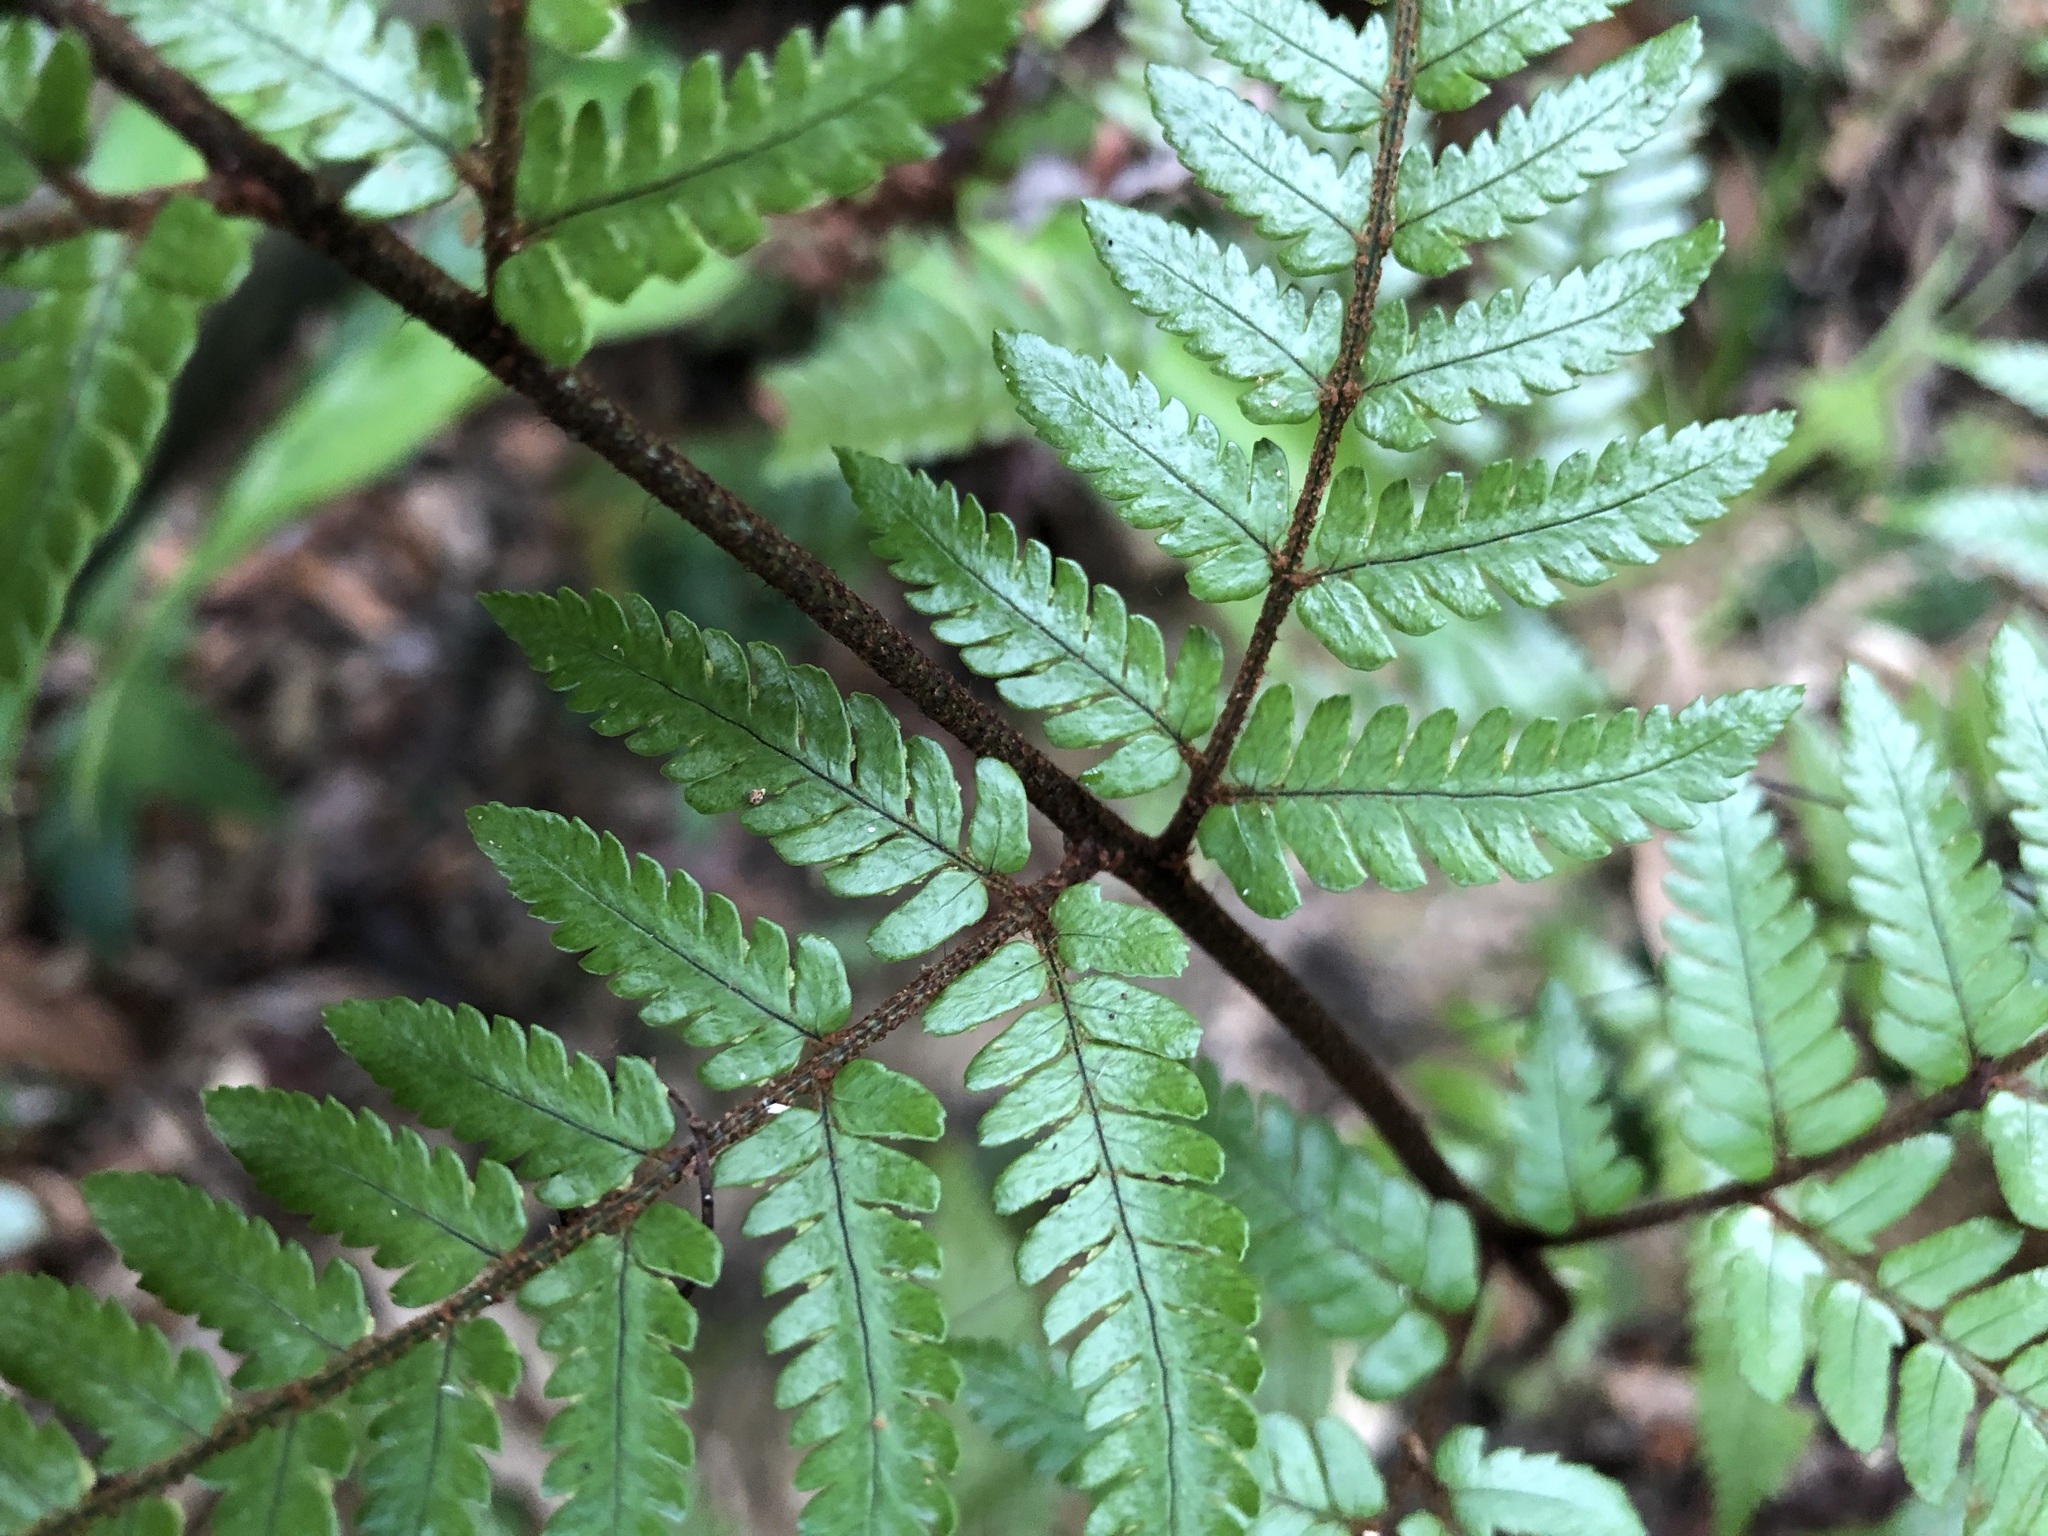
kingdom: Plantae
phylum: Tracheophyta
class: Polypodiopsida
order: Polypodiales
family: Dryopteridaceae
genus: Dryopteris
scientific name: Dryopteris formosana
